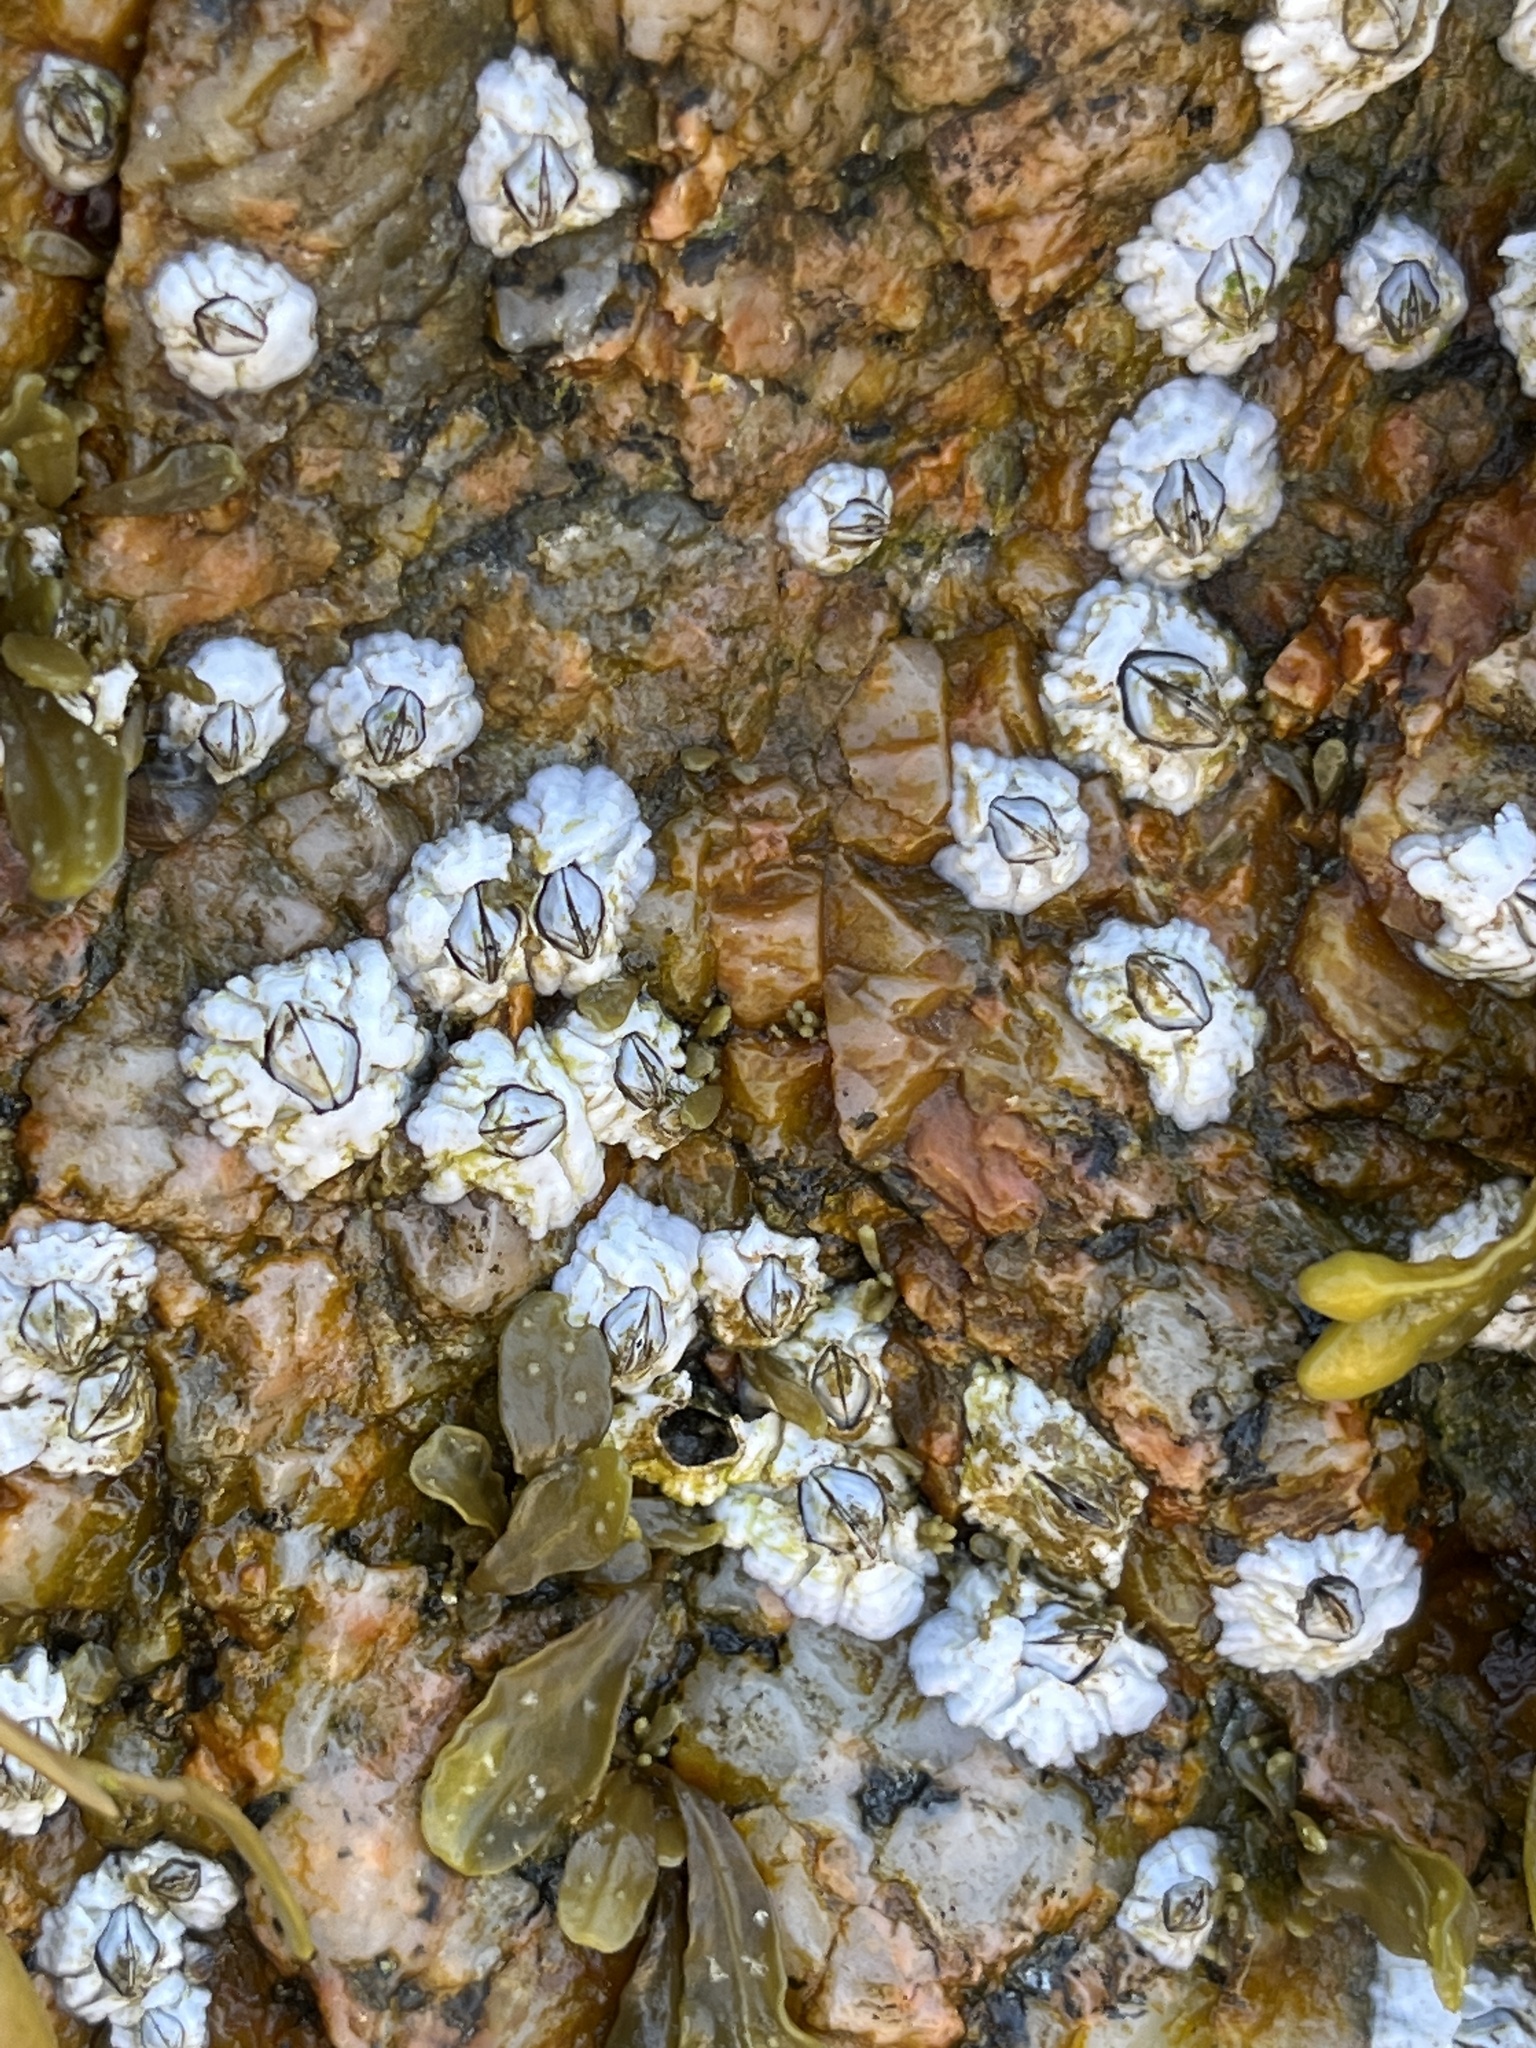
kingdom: Animalia
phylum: Arthropoda
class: Maxillopoda
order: Sessilia
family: Archaeobalanidae
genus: Semibalanus
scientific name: Semibalanus balanoides
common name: Acorn barnacle
